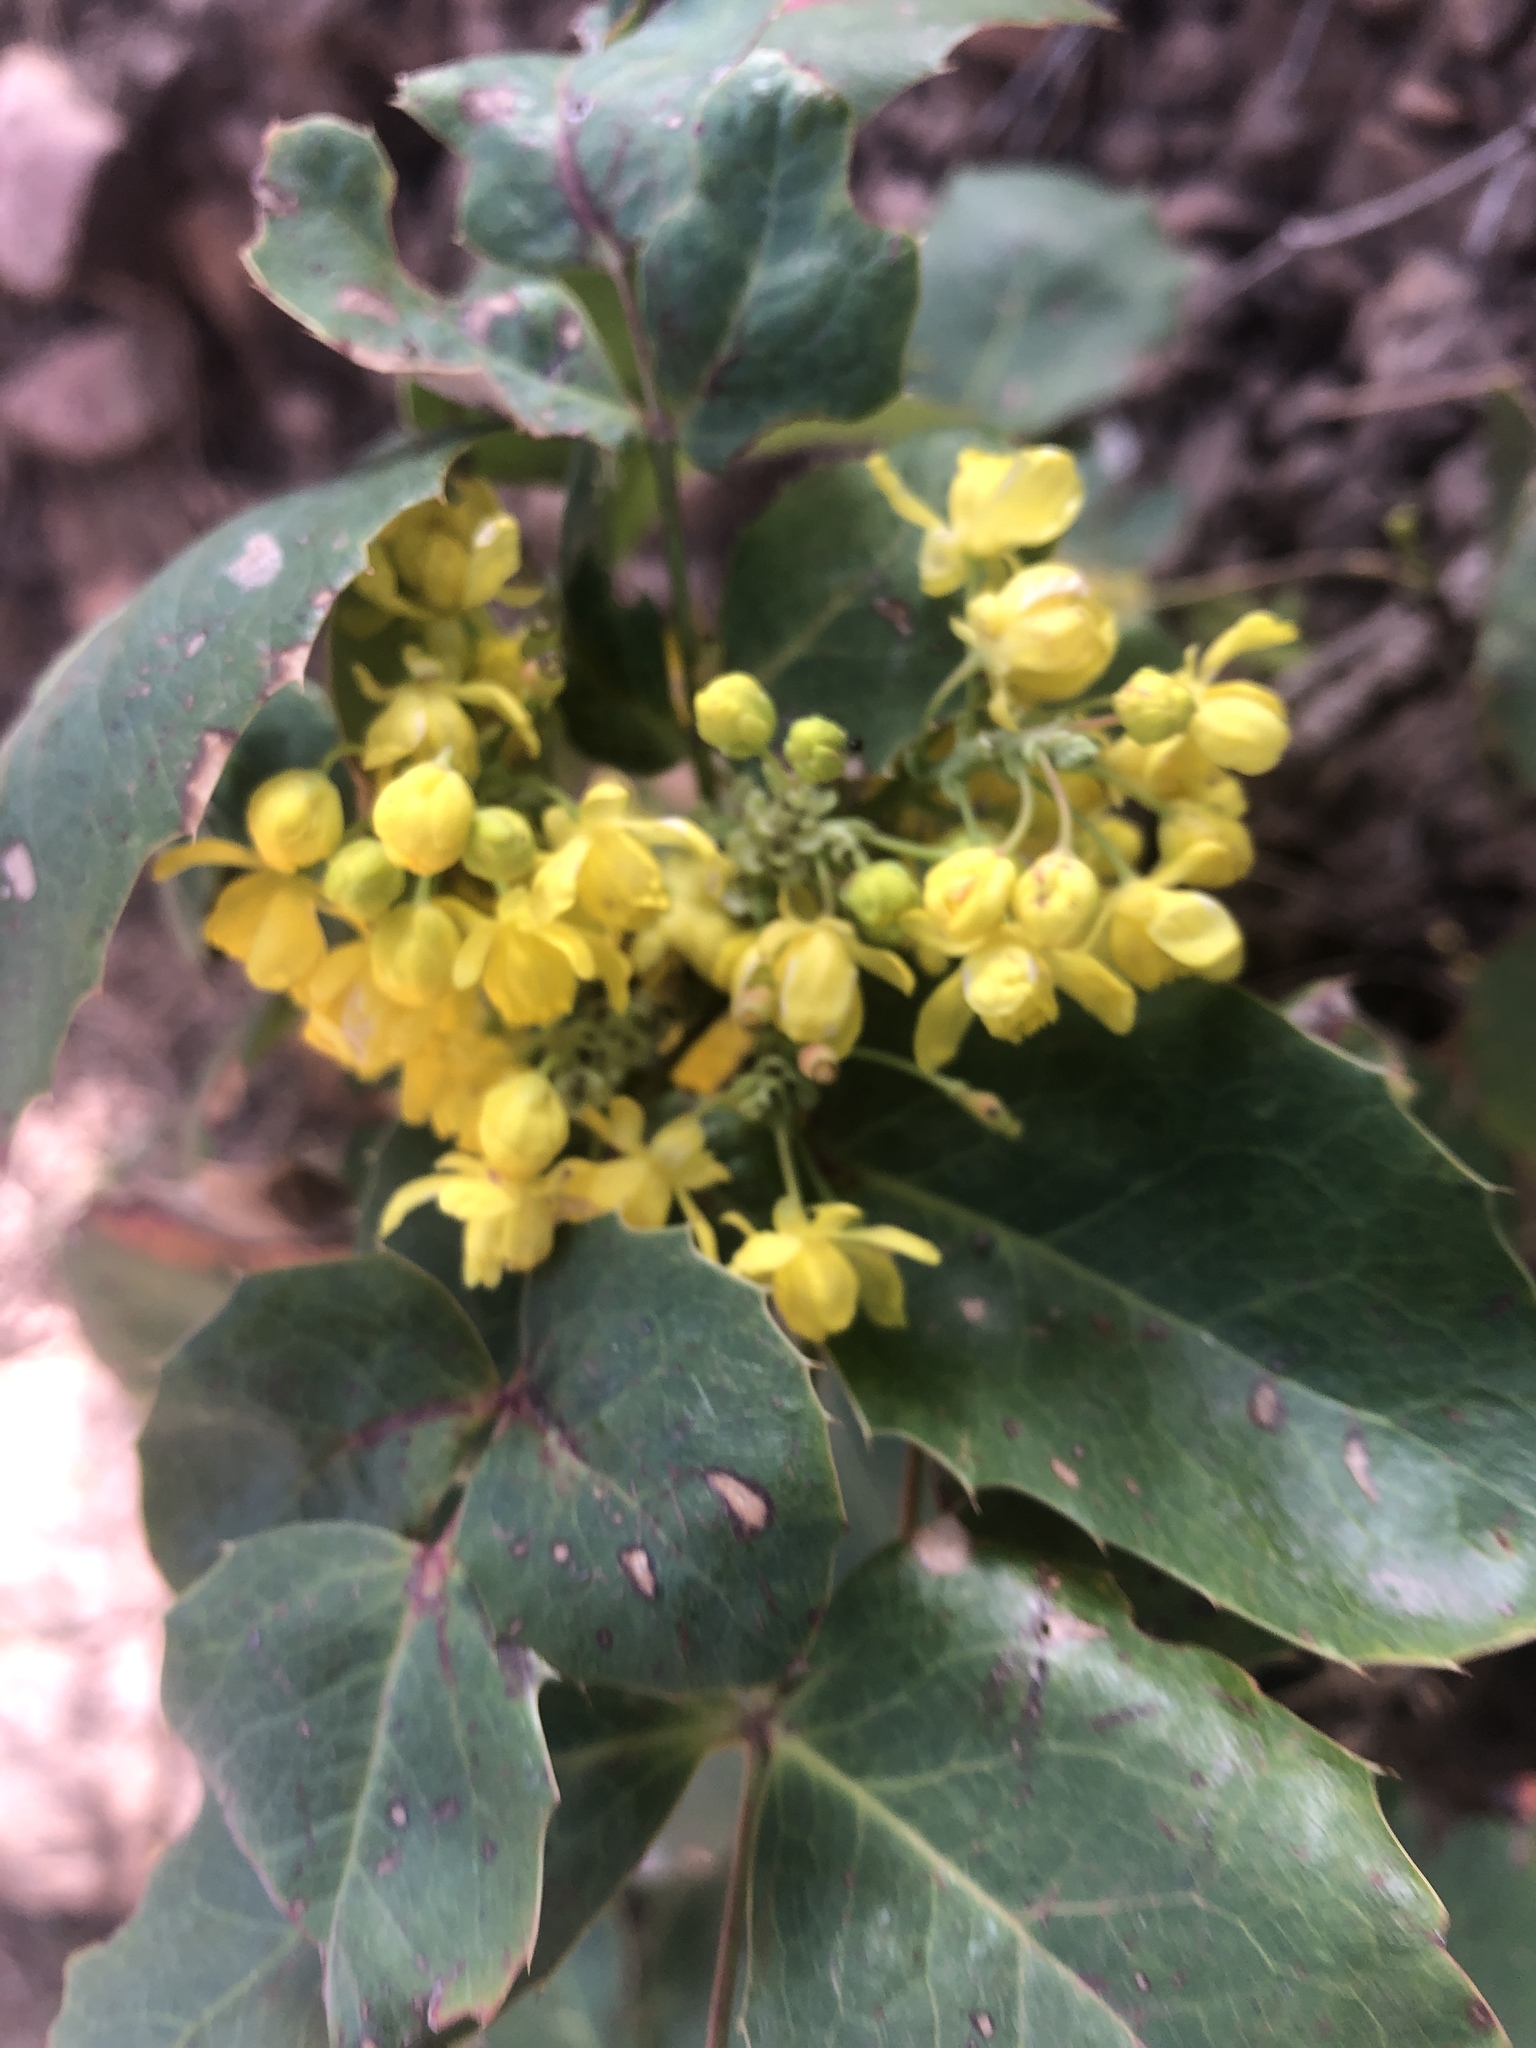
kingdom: Plantae
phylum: Tracheophyta
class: Magnoliopsida
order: Ranunculales
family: Berberidaceae
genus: Mahonia
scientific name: Mahonia repens
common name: Creeping oregon-grape
